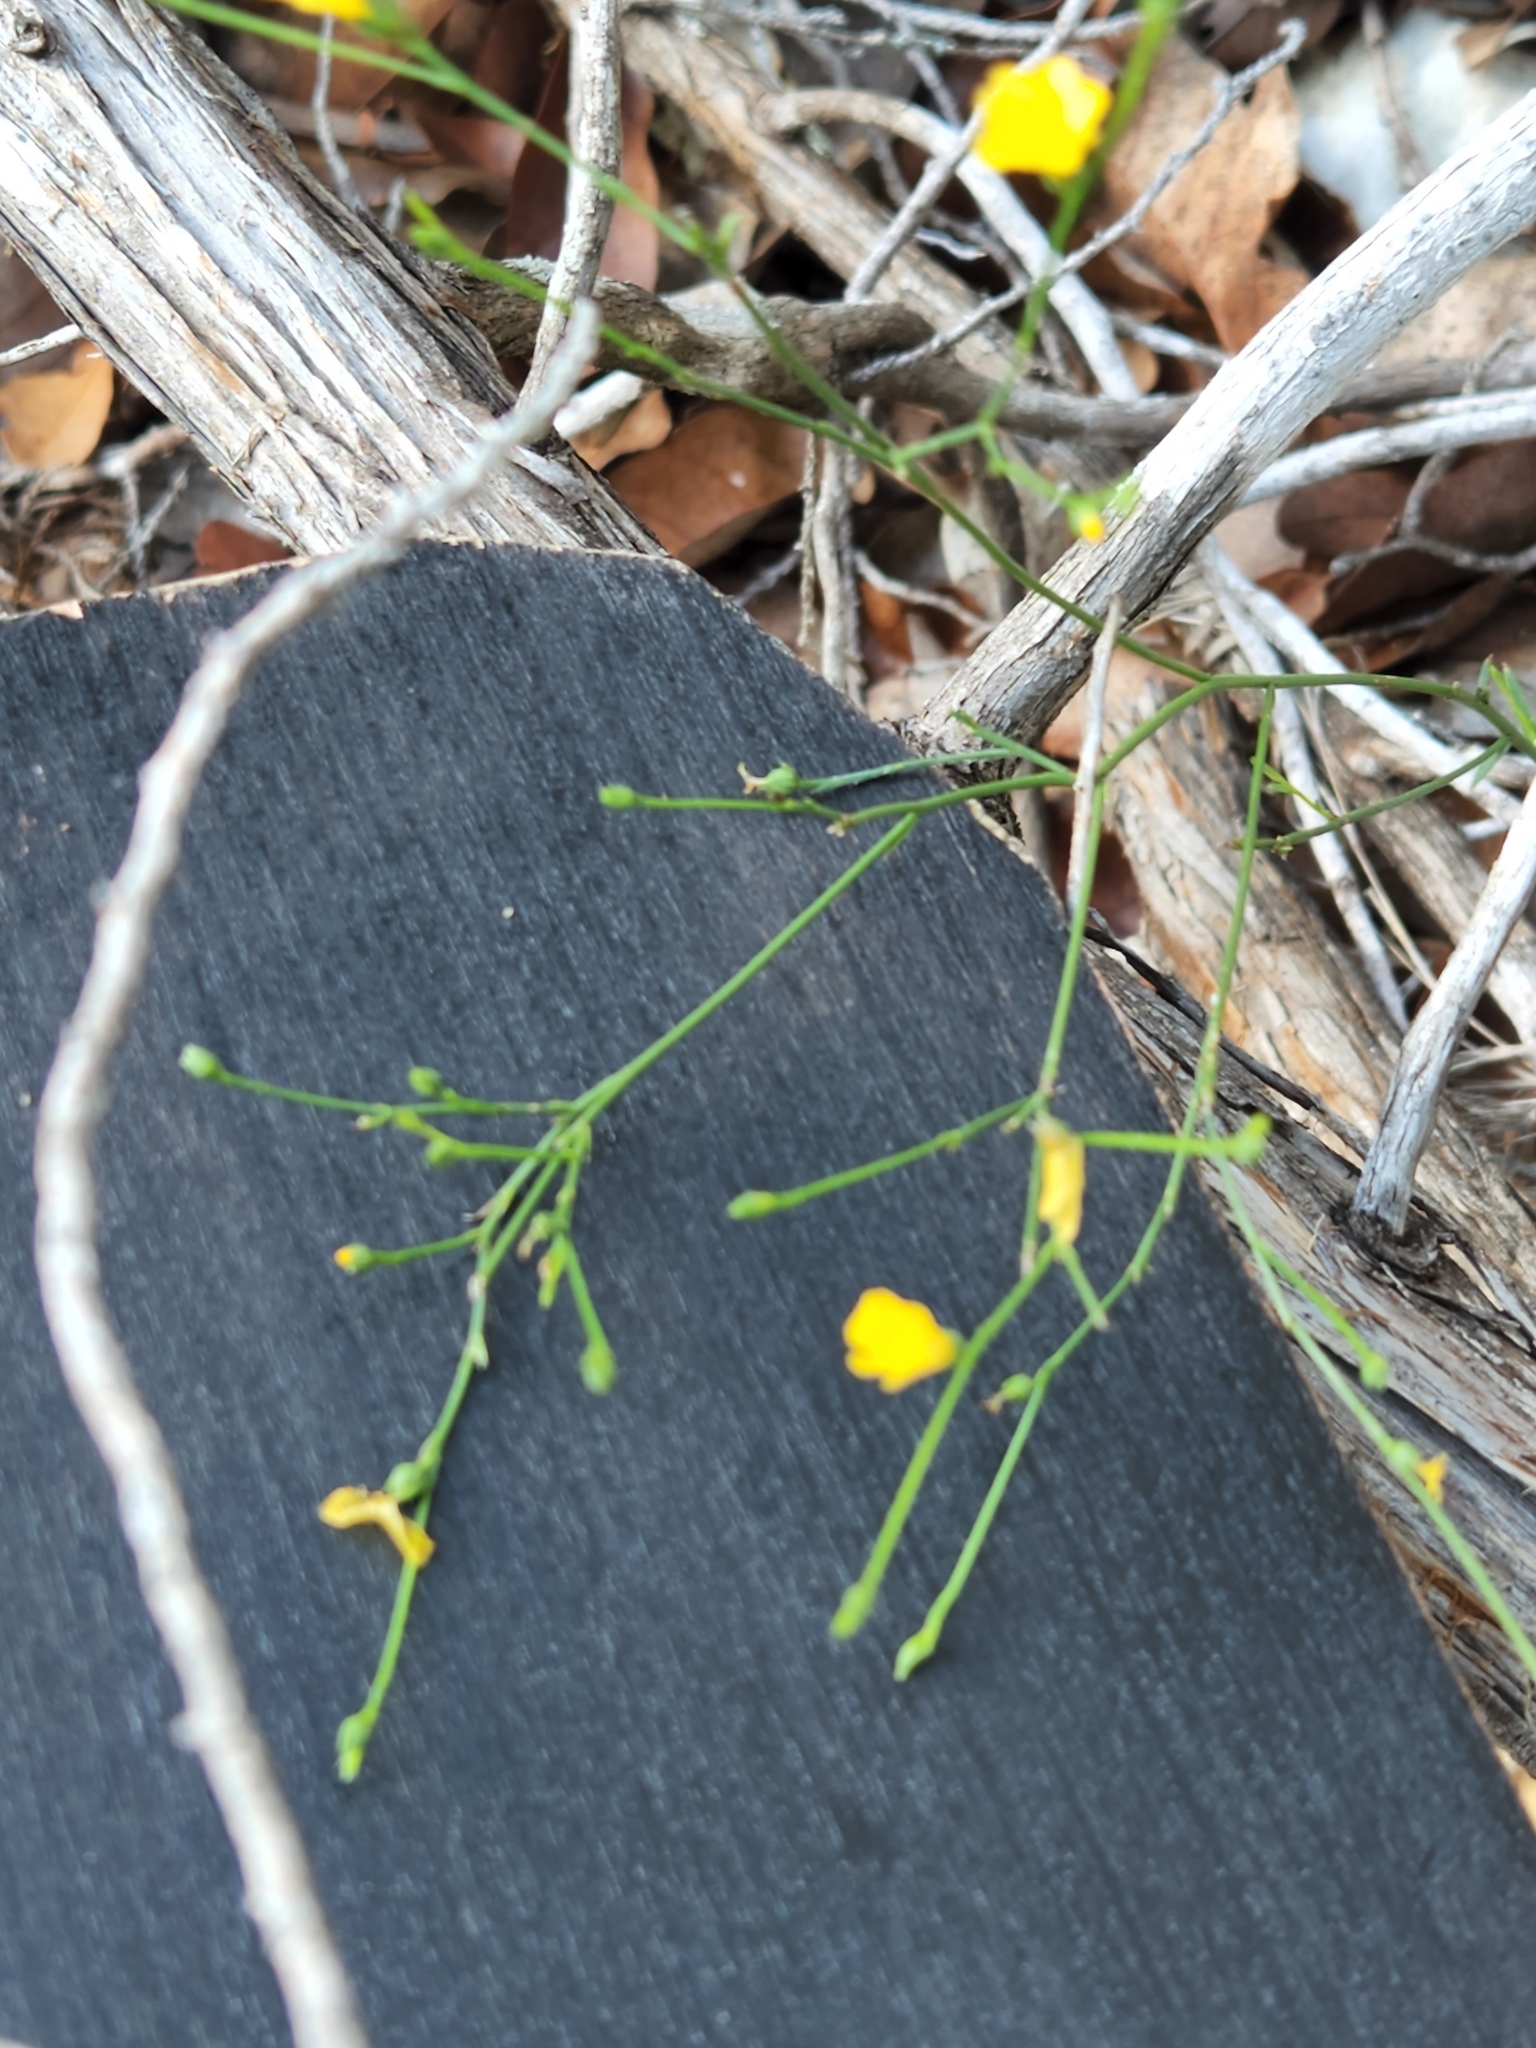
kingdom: Plantae
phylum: Tracheophyta
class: Magnoliopsida
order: Malpighiales
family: Linaceae
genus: Linum
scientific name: Linum rupestre
